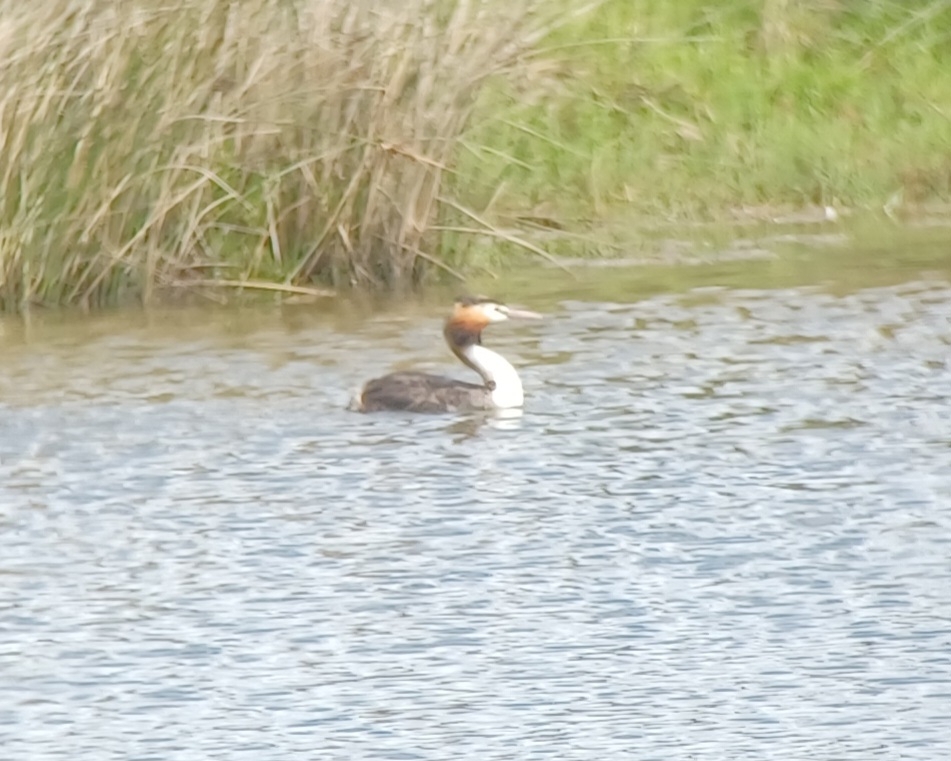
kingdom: Animalia
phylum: Chordata
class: Aves
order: Podicipediformes
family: Podicipedidae
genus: Podiceps
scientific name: Podiceps cristatus
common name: Great crested grebe
